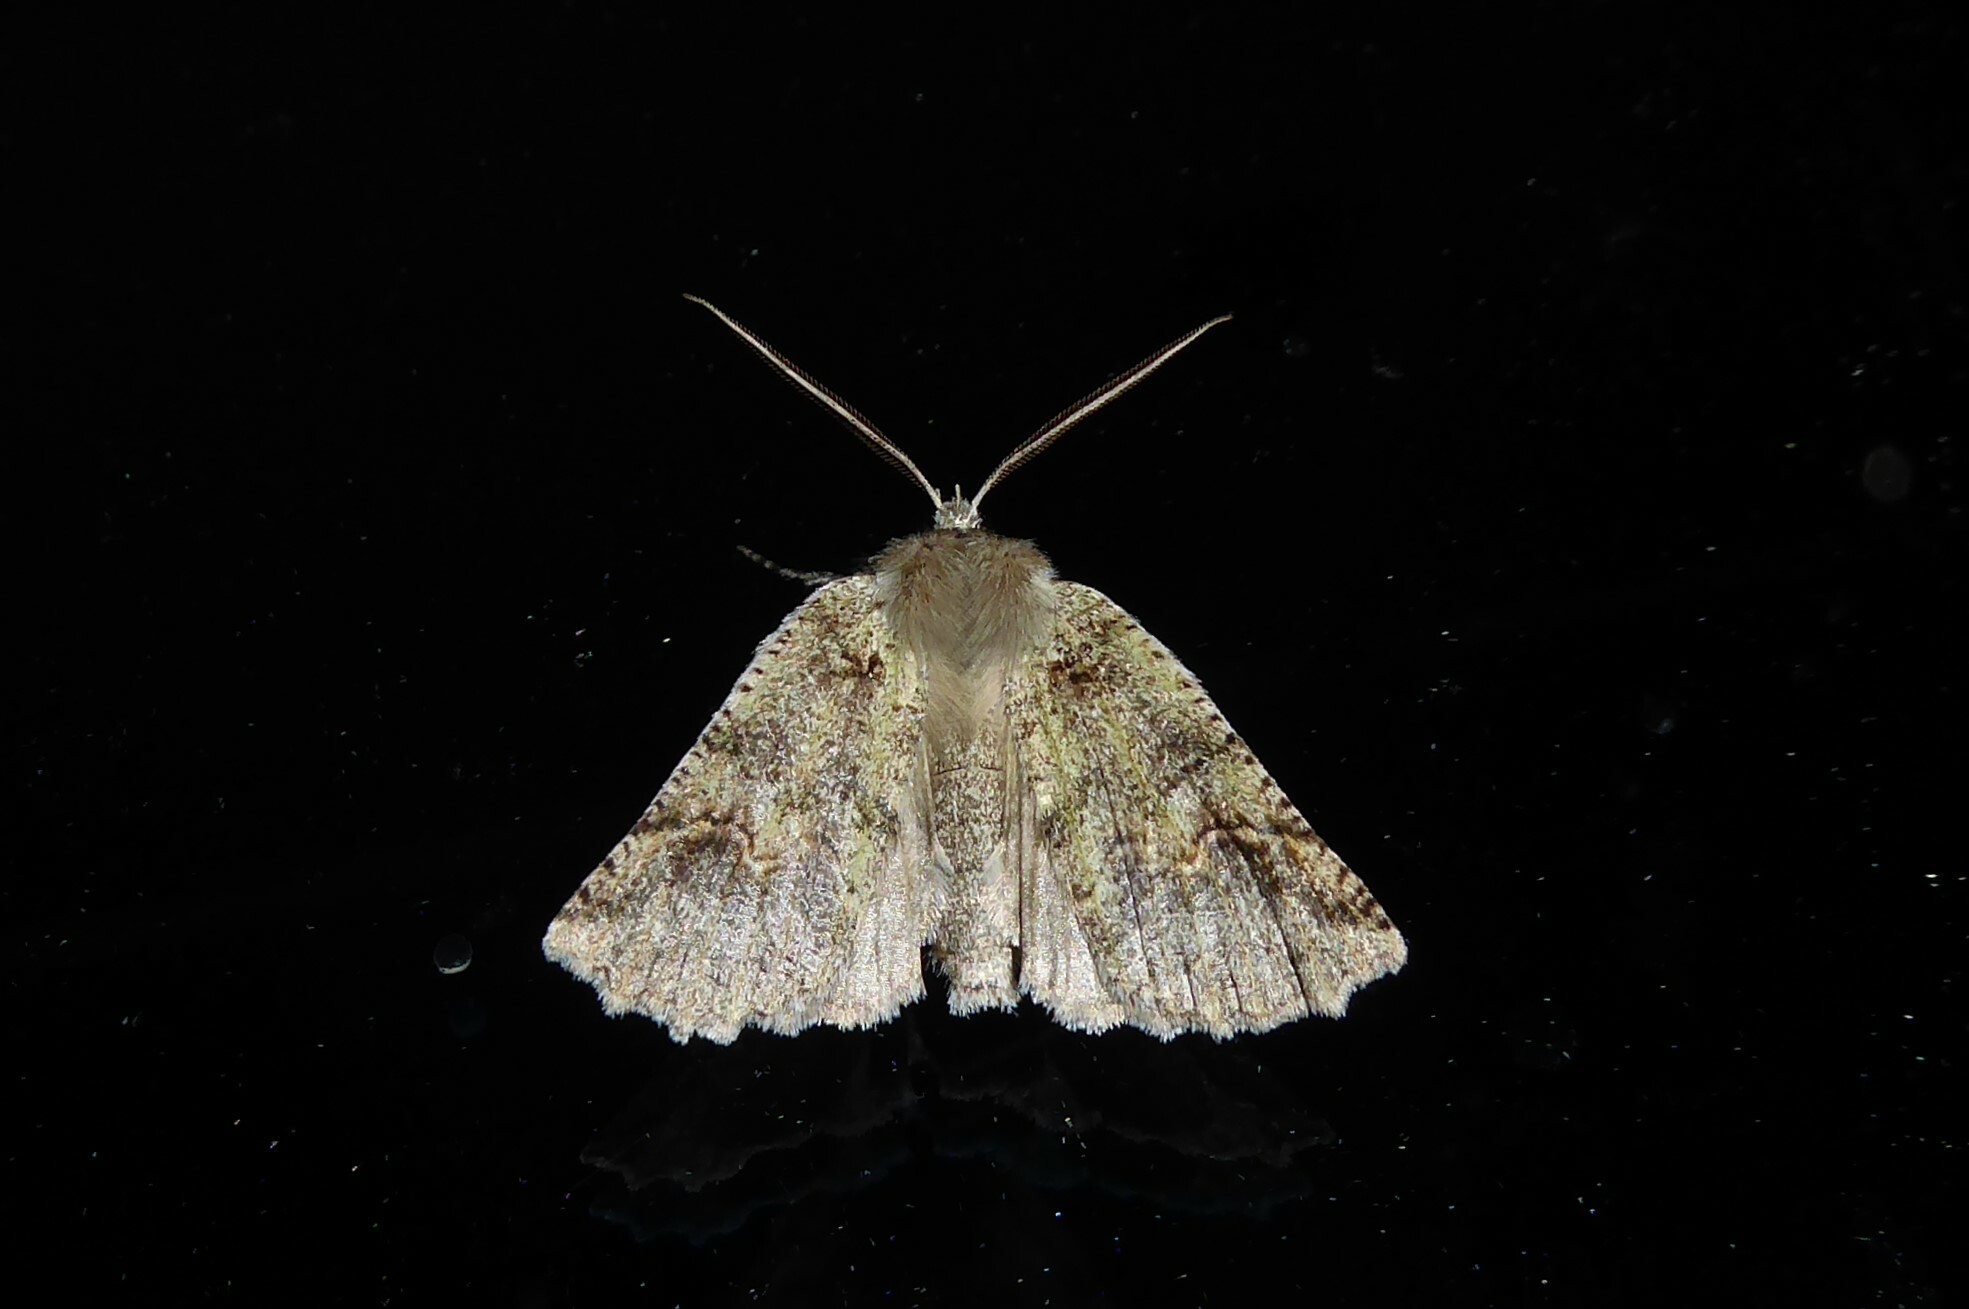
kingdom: Animalia
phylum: Arthropoda
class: Insecta
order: Lepidoptera
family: Geometridae
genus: Declana
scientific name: Declana floccosa
